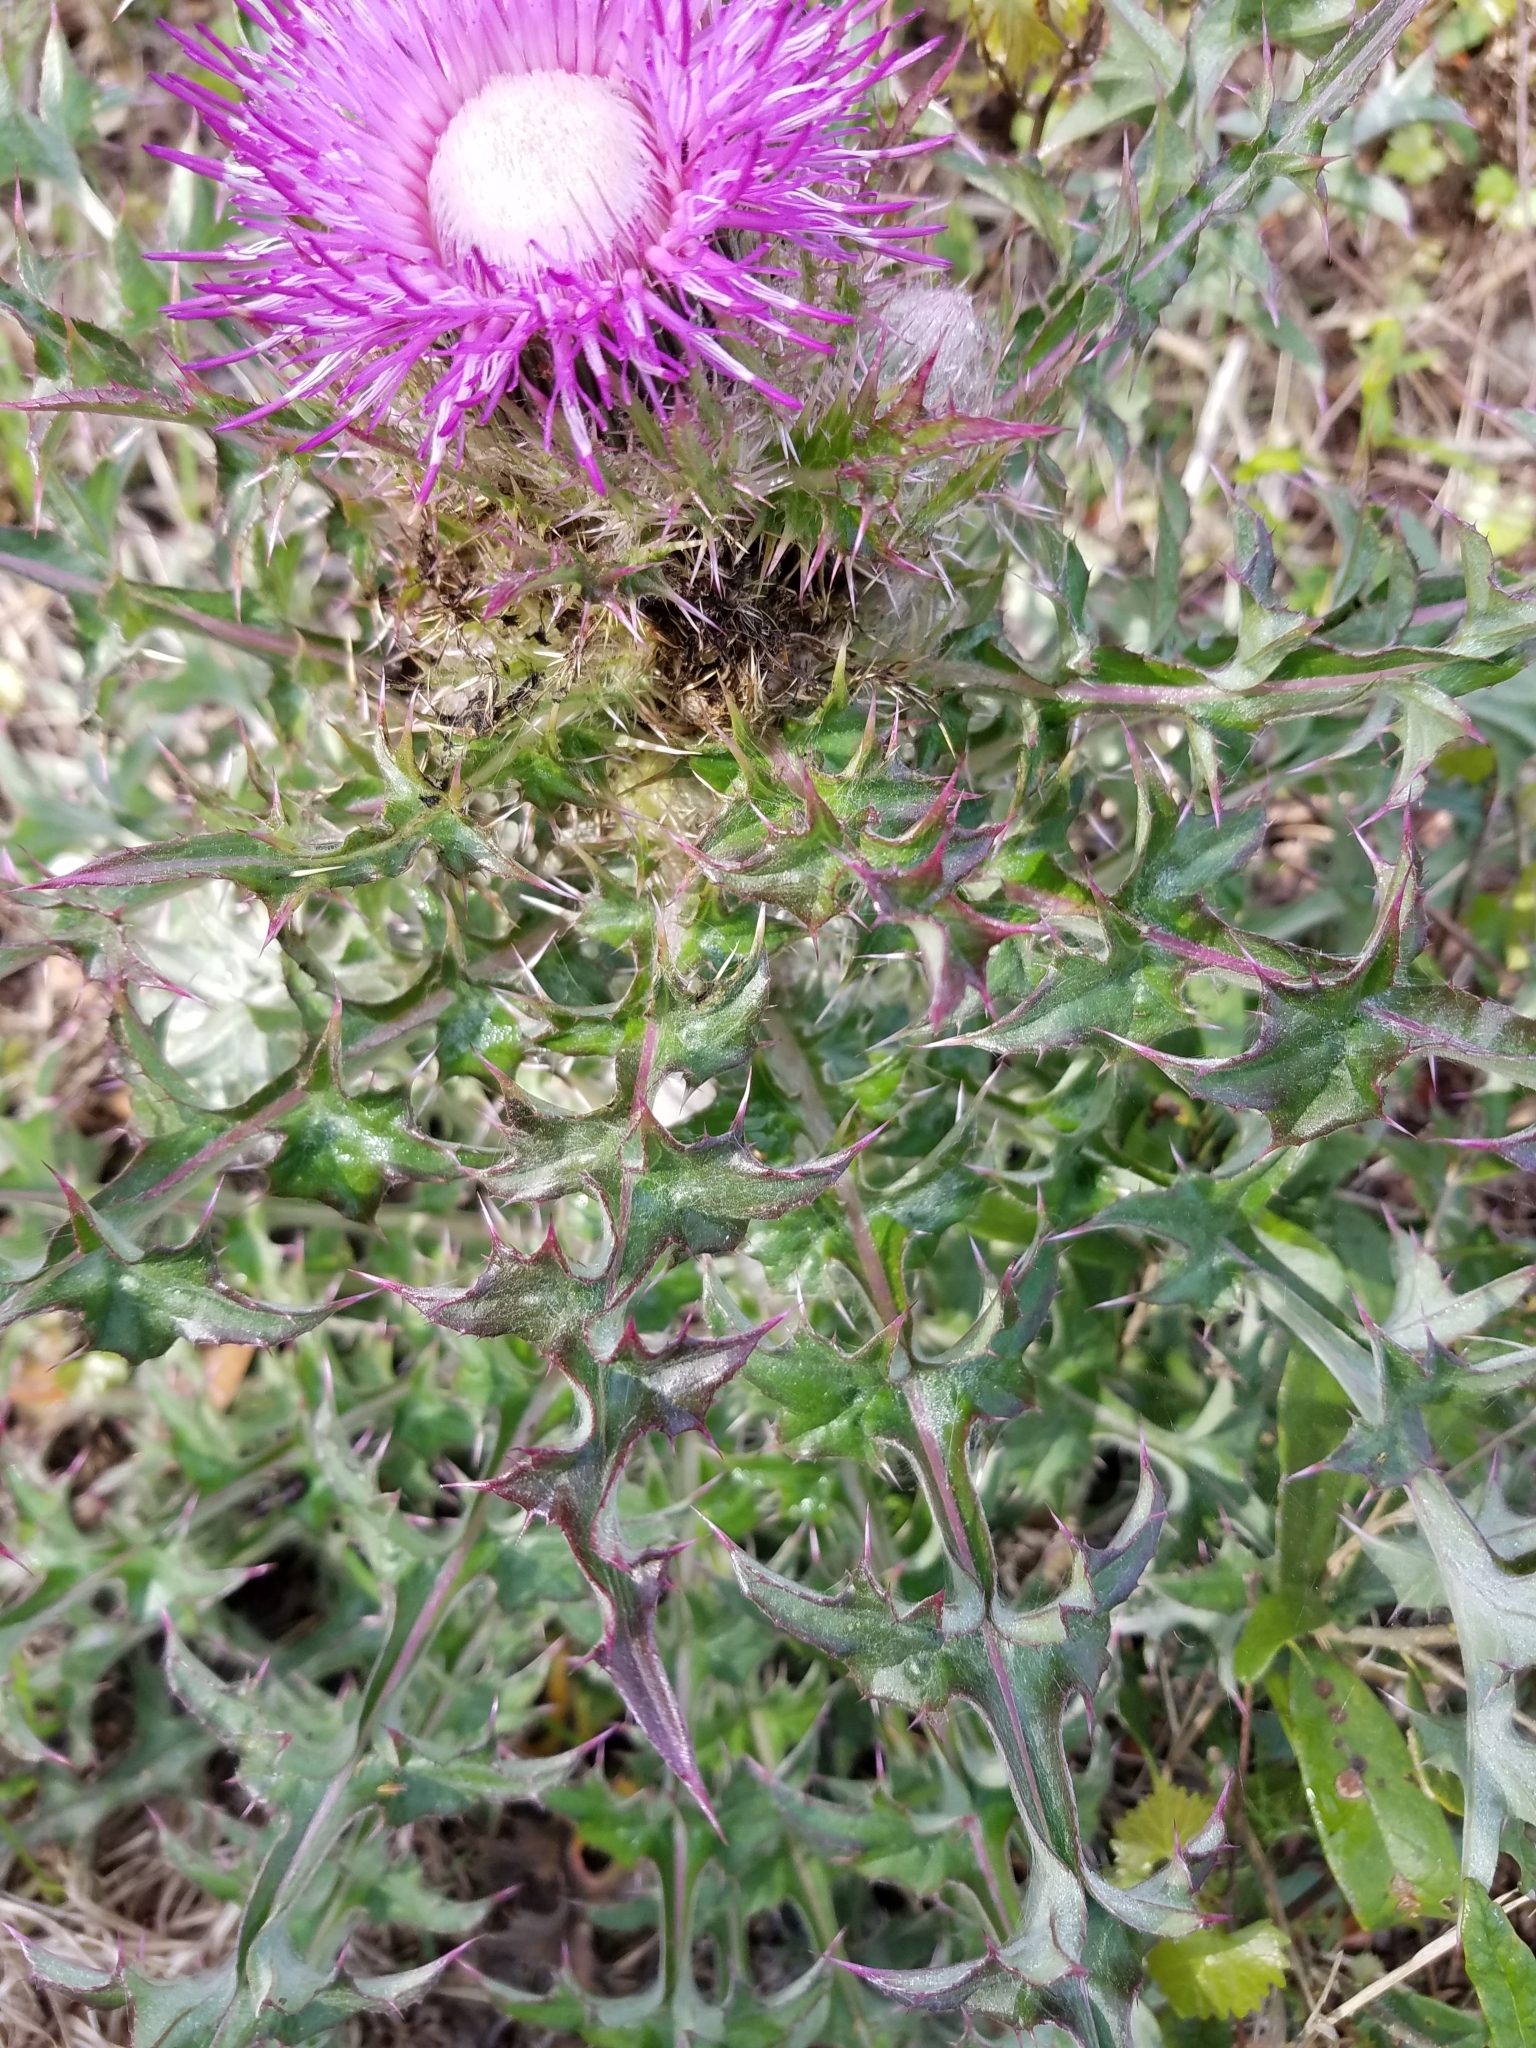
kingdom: Plantae
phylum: Tracheophyta
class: Magnoliopsida
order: Asterales
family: Asteraceae
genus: Cirsium
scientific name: Cirsium horridulum
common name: Bristly thistle
